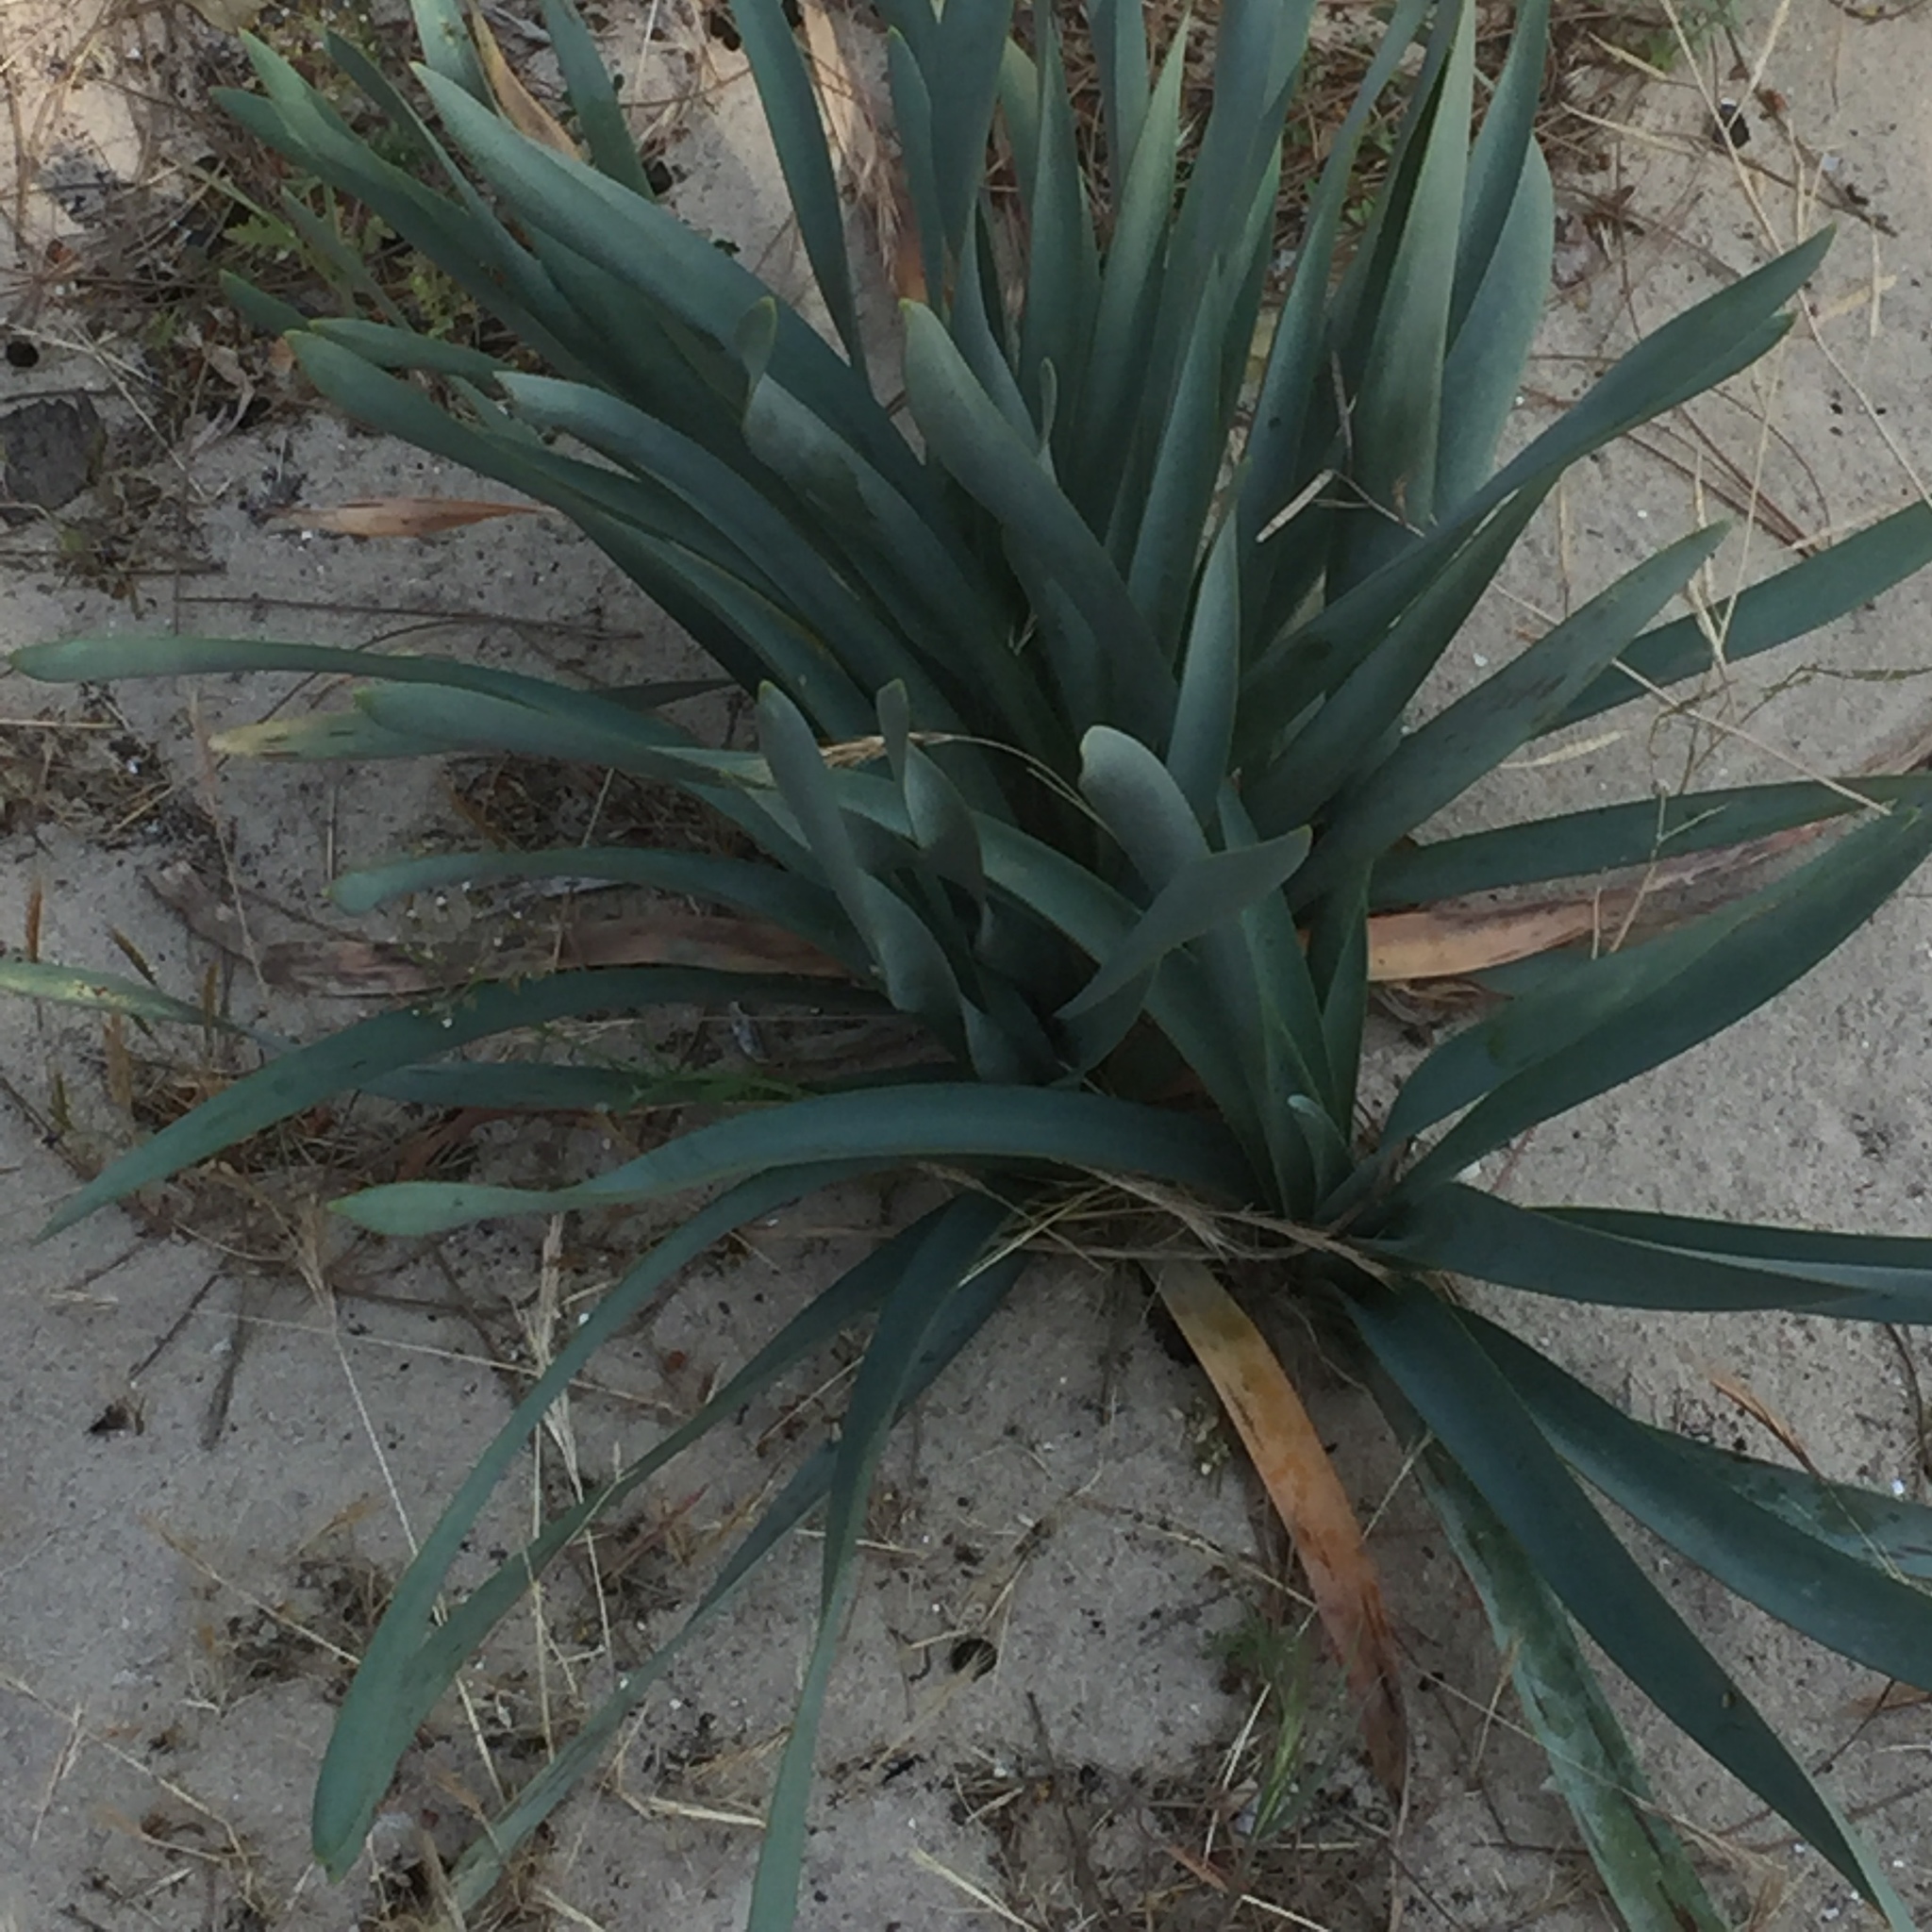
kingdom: Plantae
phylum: Tracheophyta
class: Liliopsida
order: Asparagales
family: Amaryllidaceae
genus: Pancratium
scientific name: Pancratium maritimum
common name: Sea-daffodil
